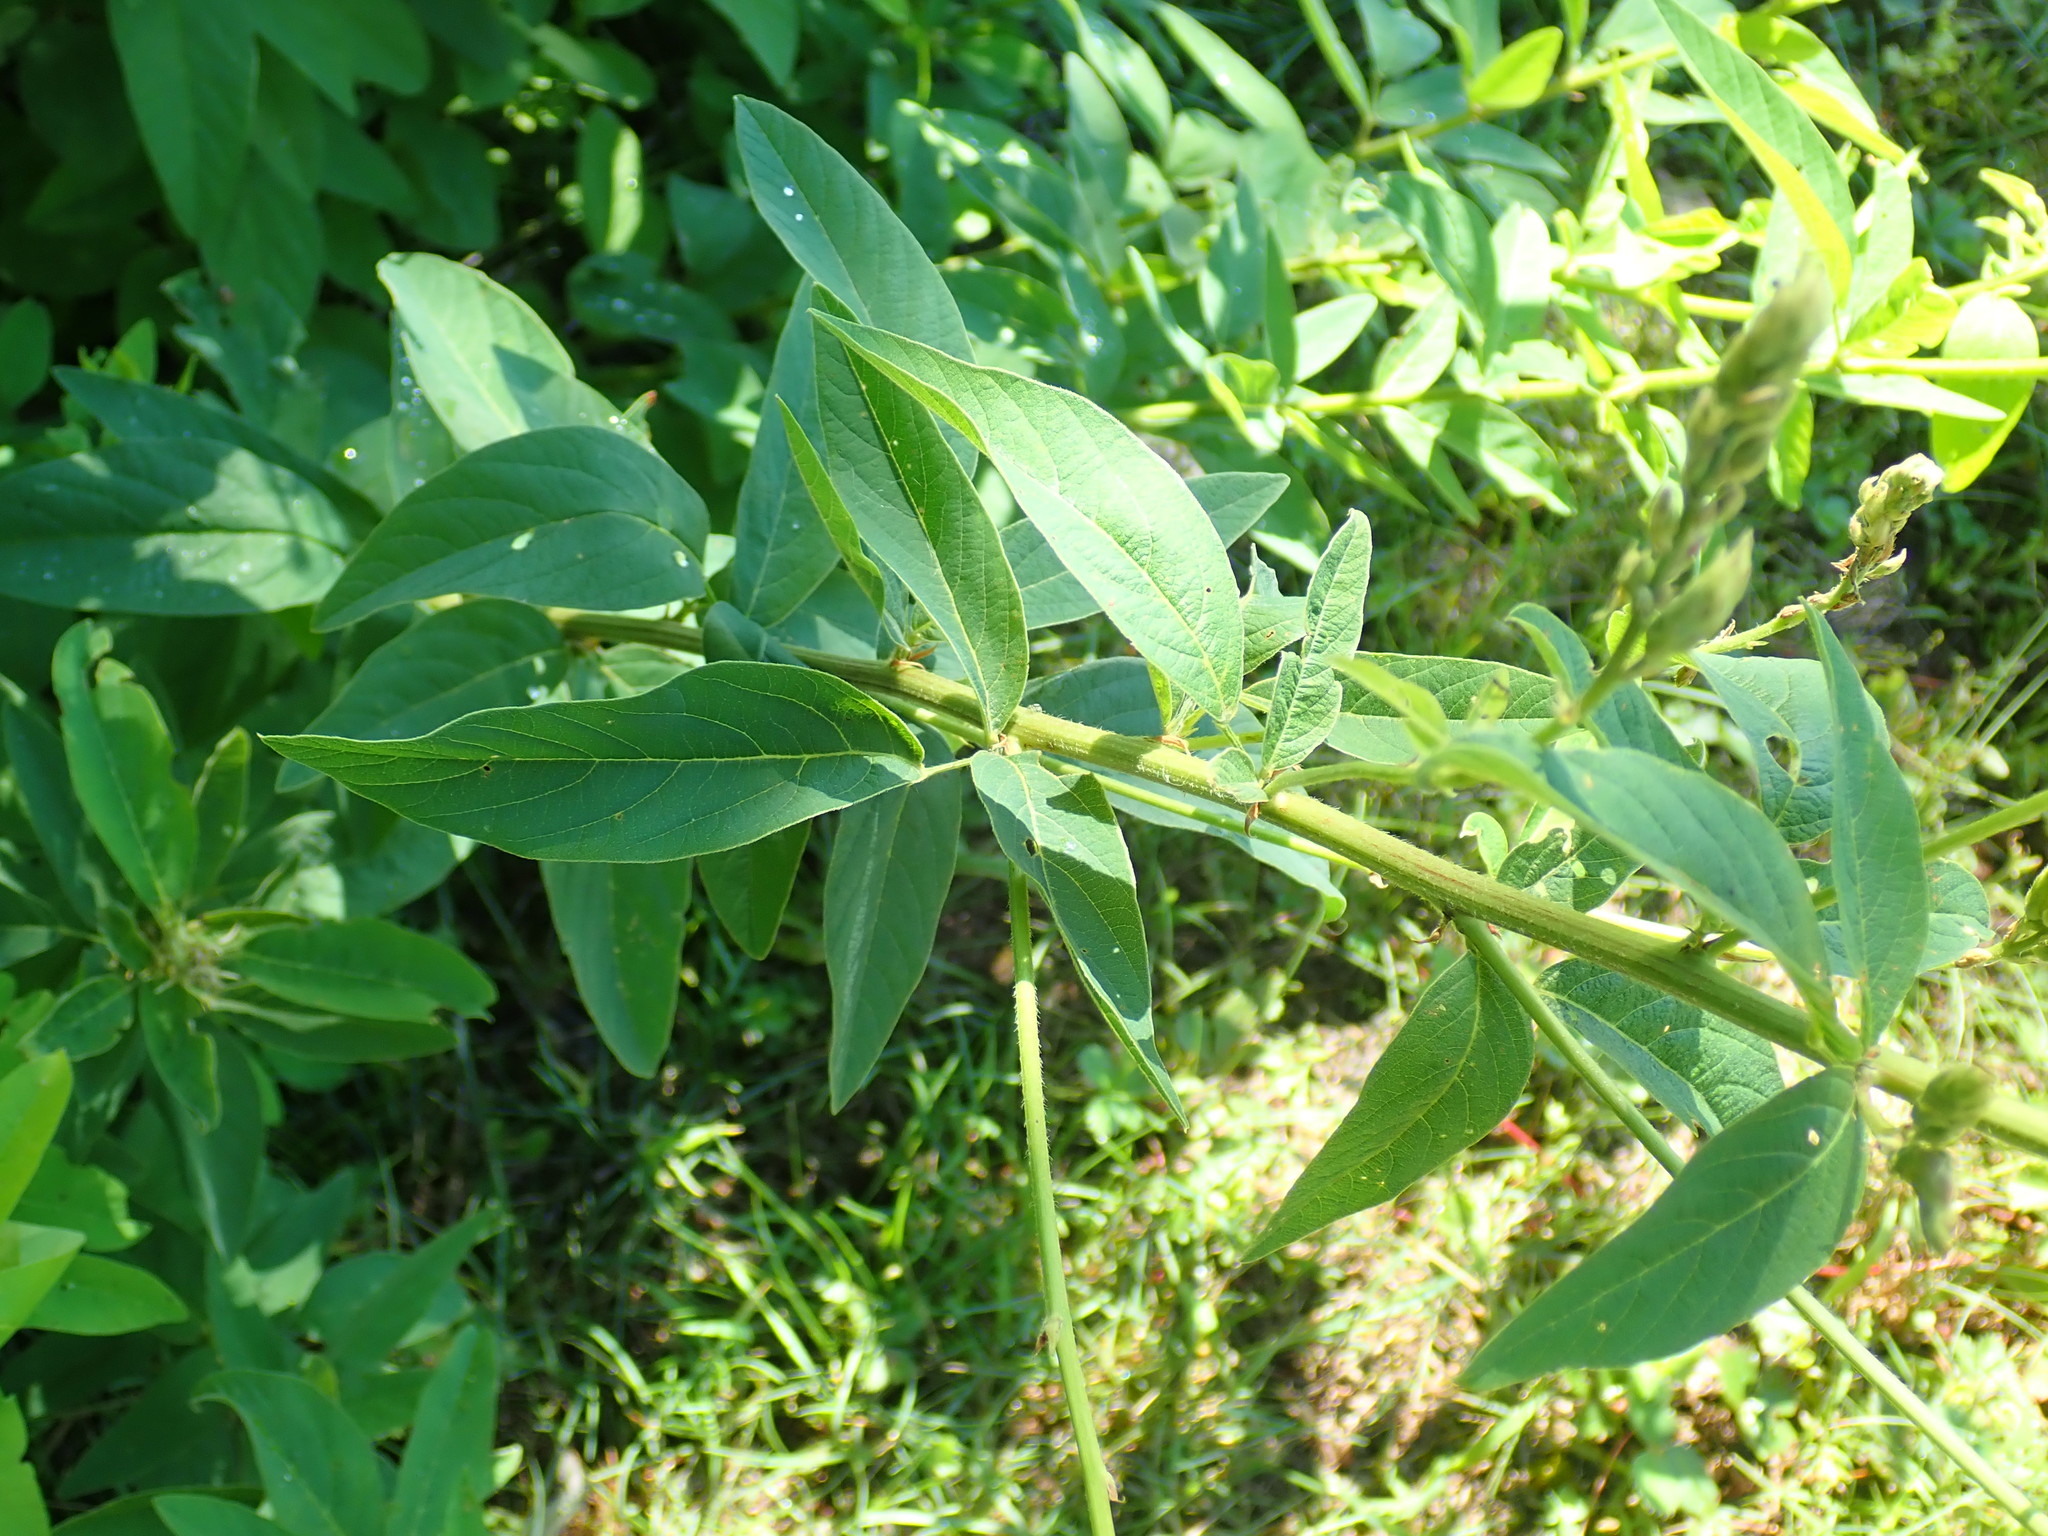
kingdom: Plantae
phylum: Tracheophyta
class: Magnoliopsida
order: Fabales
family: Fabaceae
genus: Desmodium
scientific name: Desmodium canadense
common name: Canada tick-trefoil
